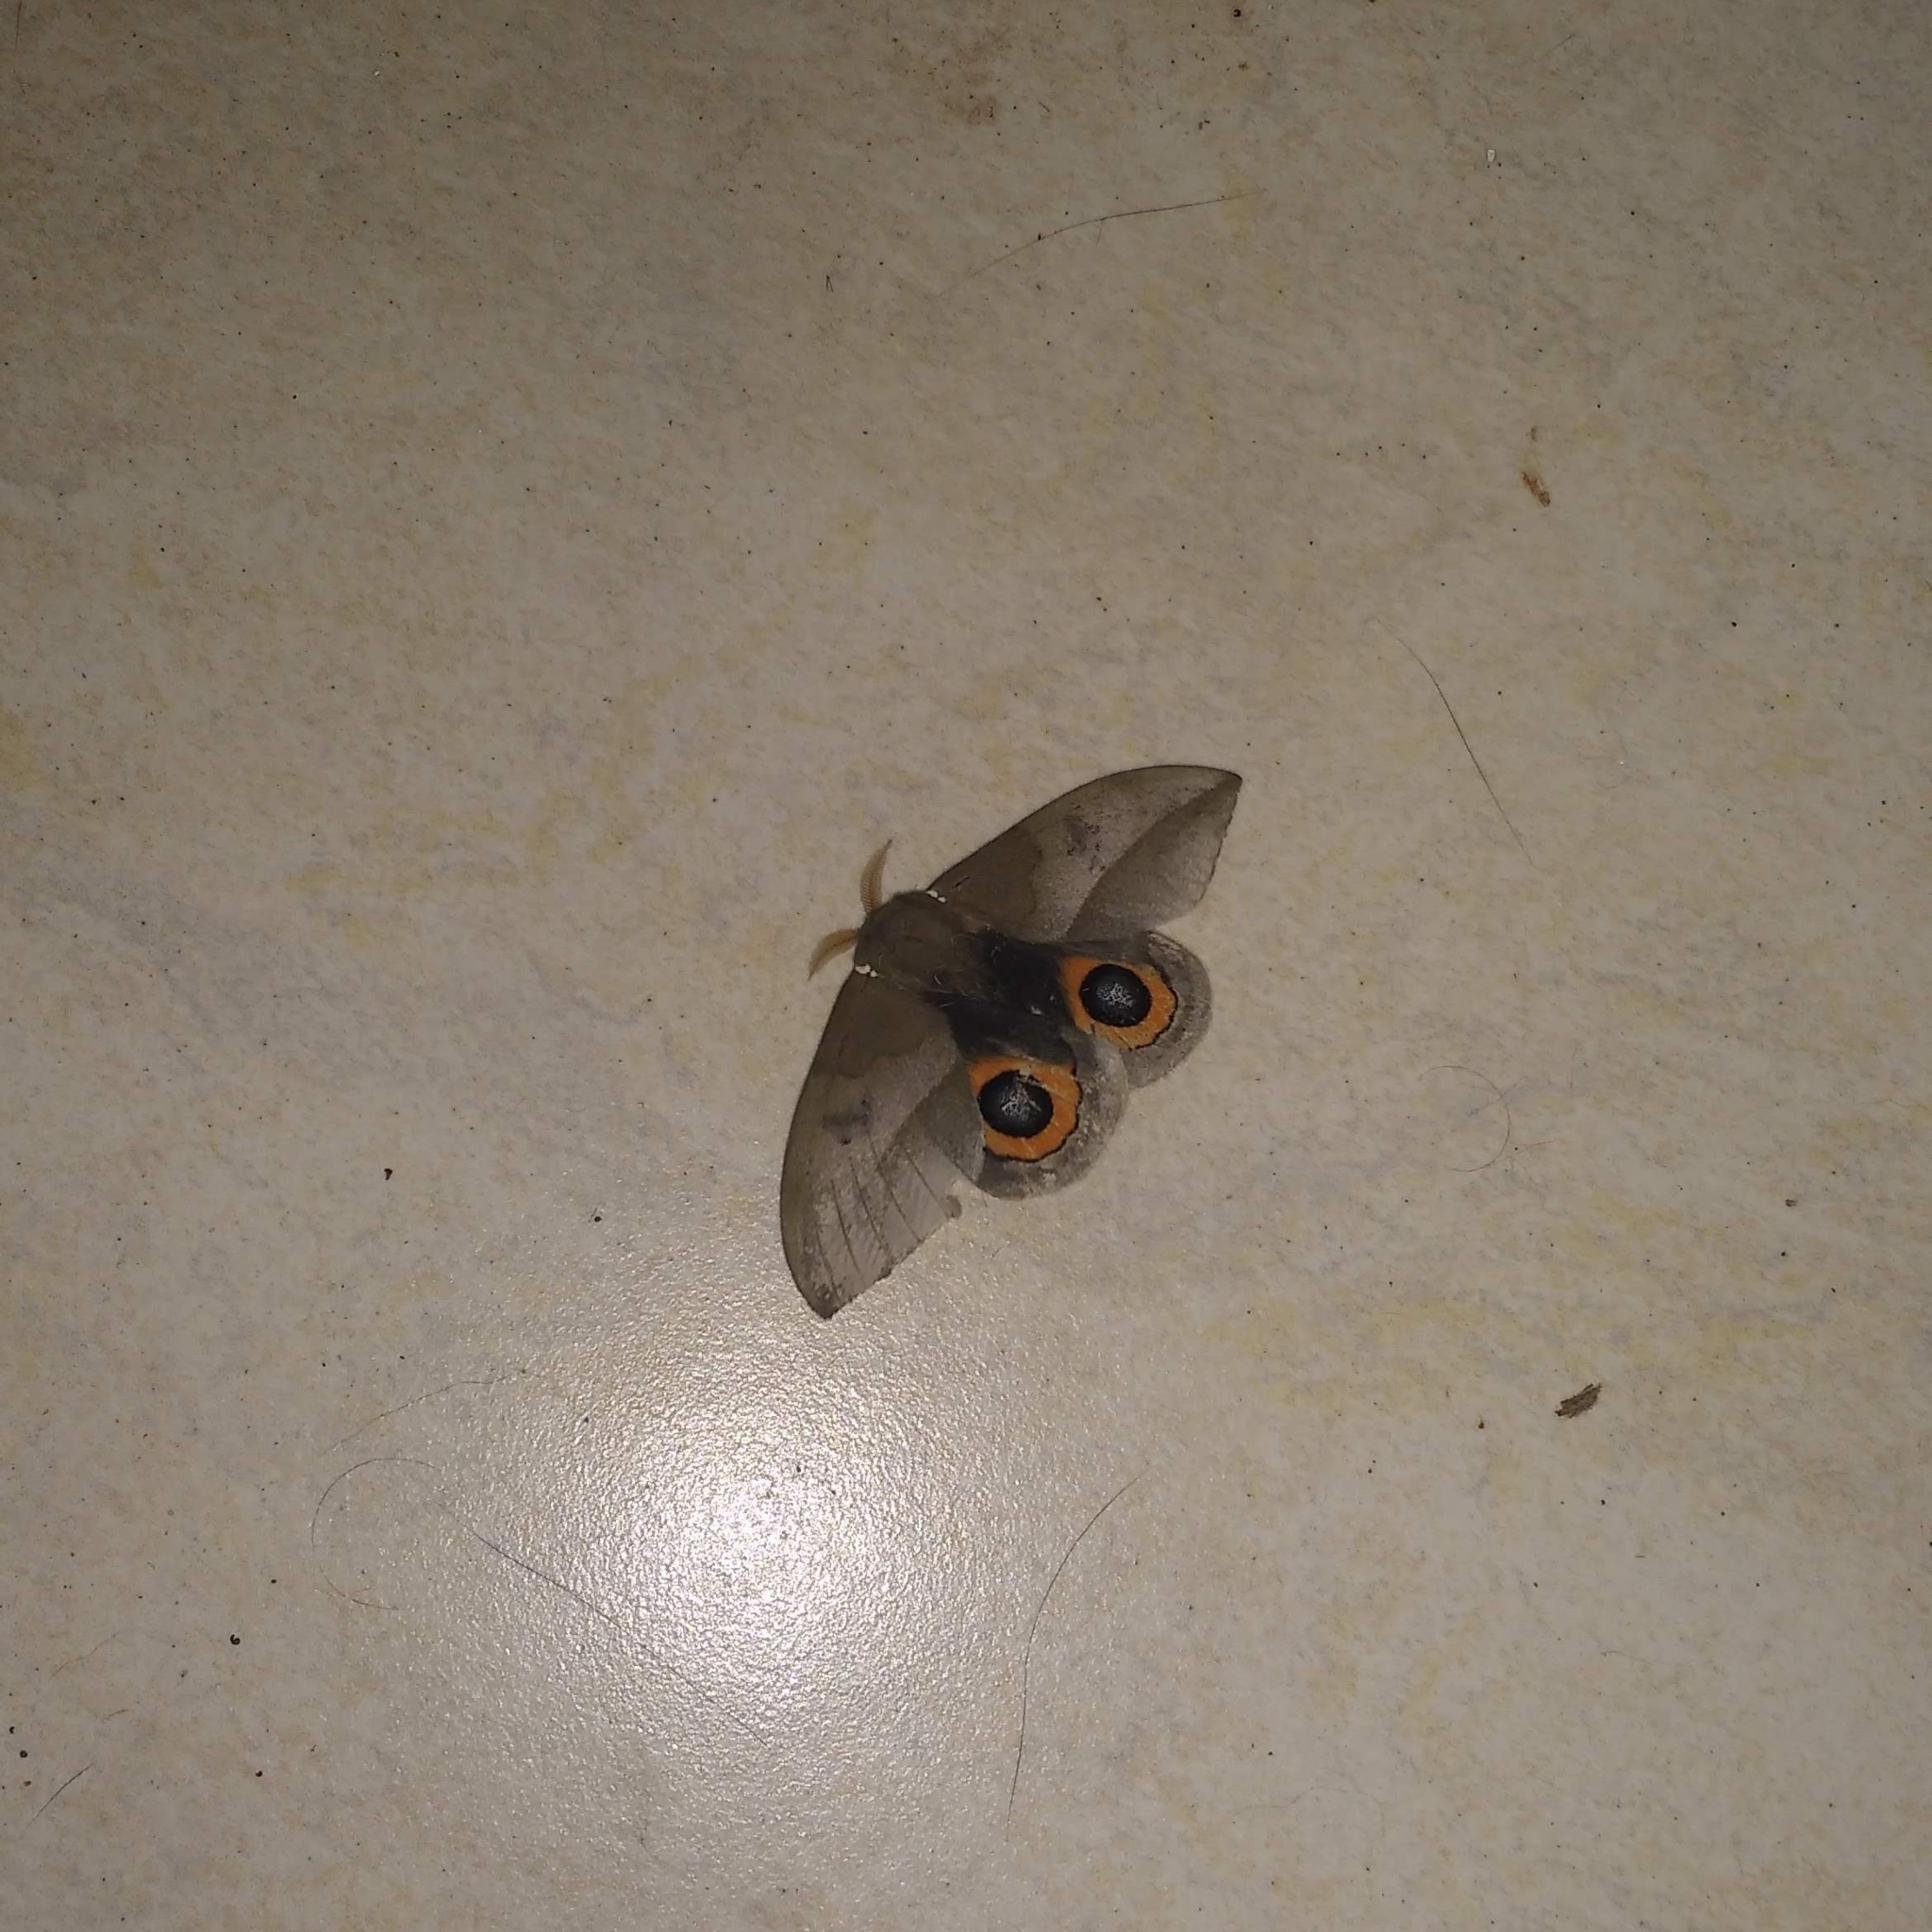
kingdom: Animalia
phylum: Arthropoda
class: Insecta
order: Lepidoptera
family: Saturniidae
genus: Automeris
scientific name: Automeris naranja
